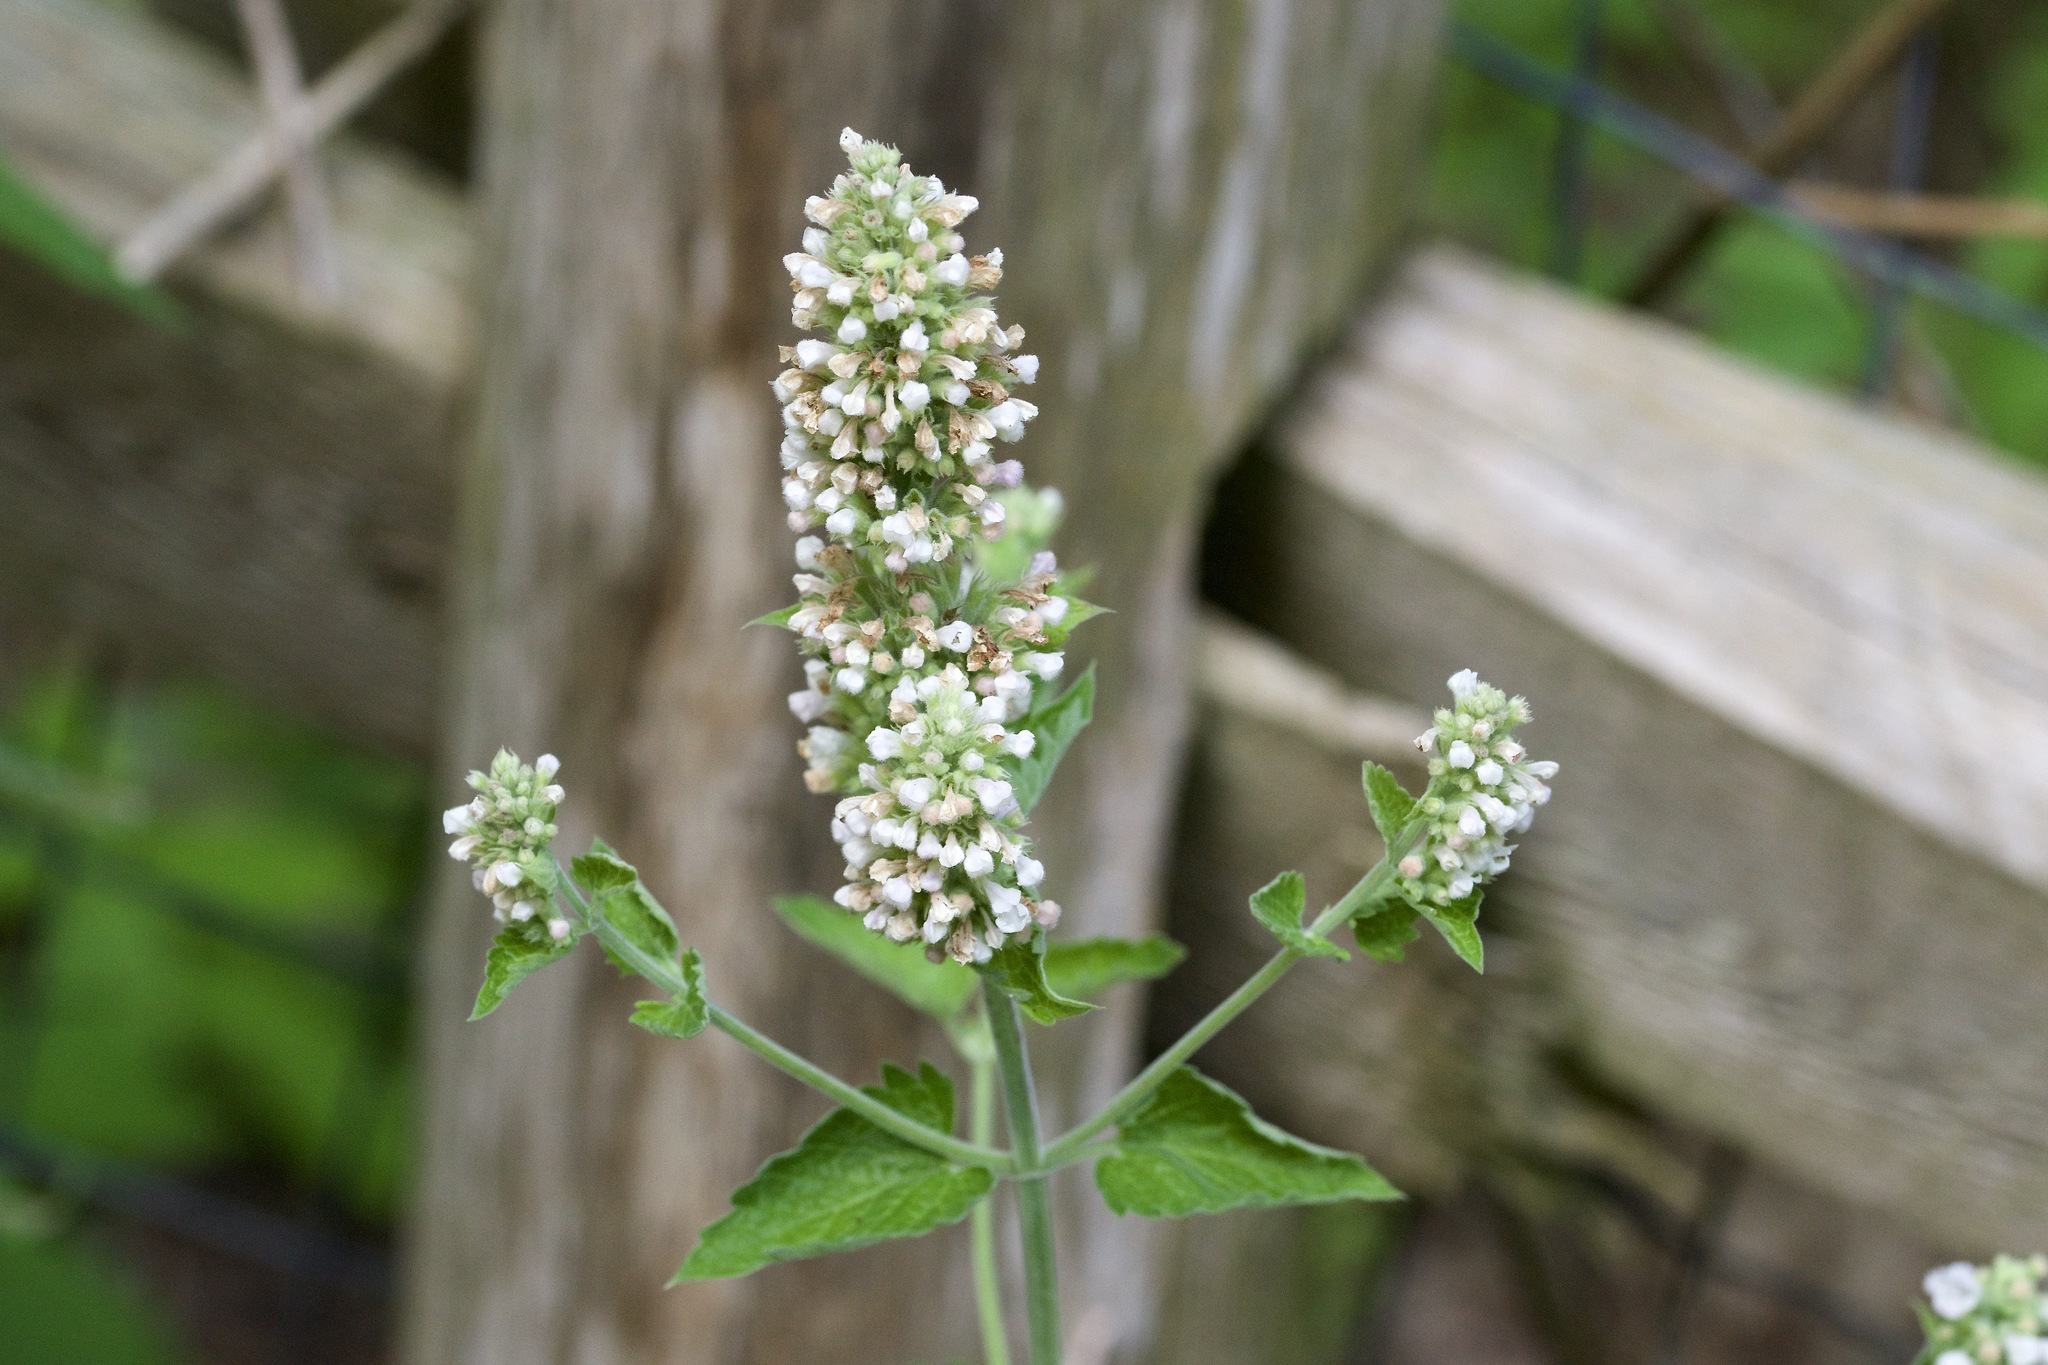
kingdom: Plantae
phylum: Tracheophyta
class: Magnoliopsida
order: Lamiales
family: Lamiaceae
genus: Nepeta
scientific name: Nepeta cataria
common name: Catnip
